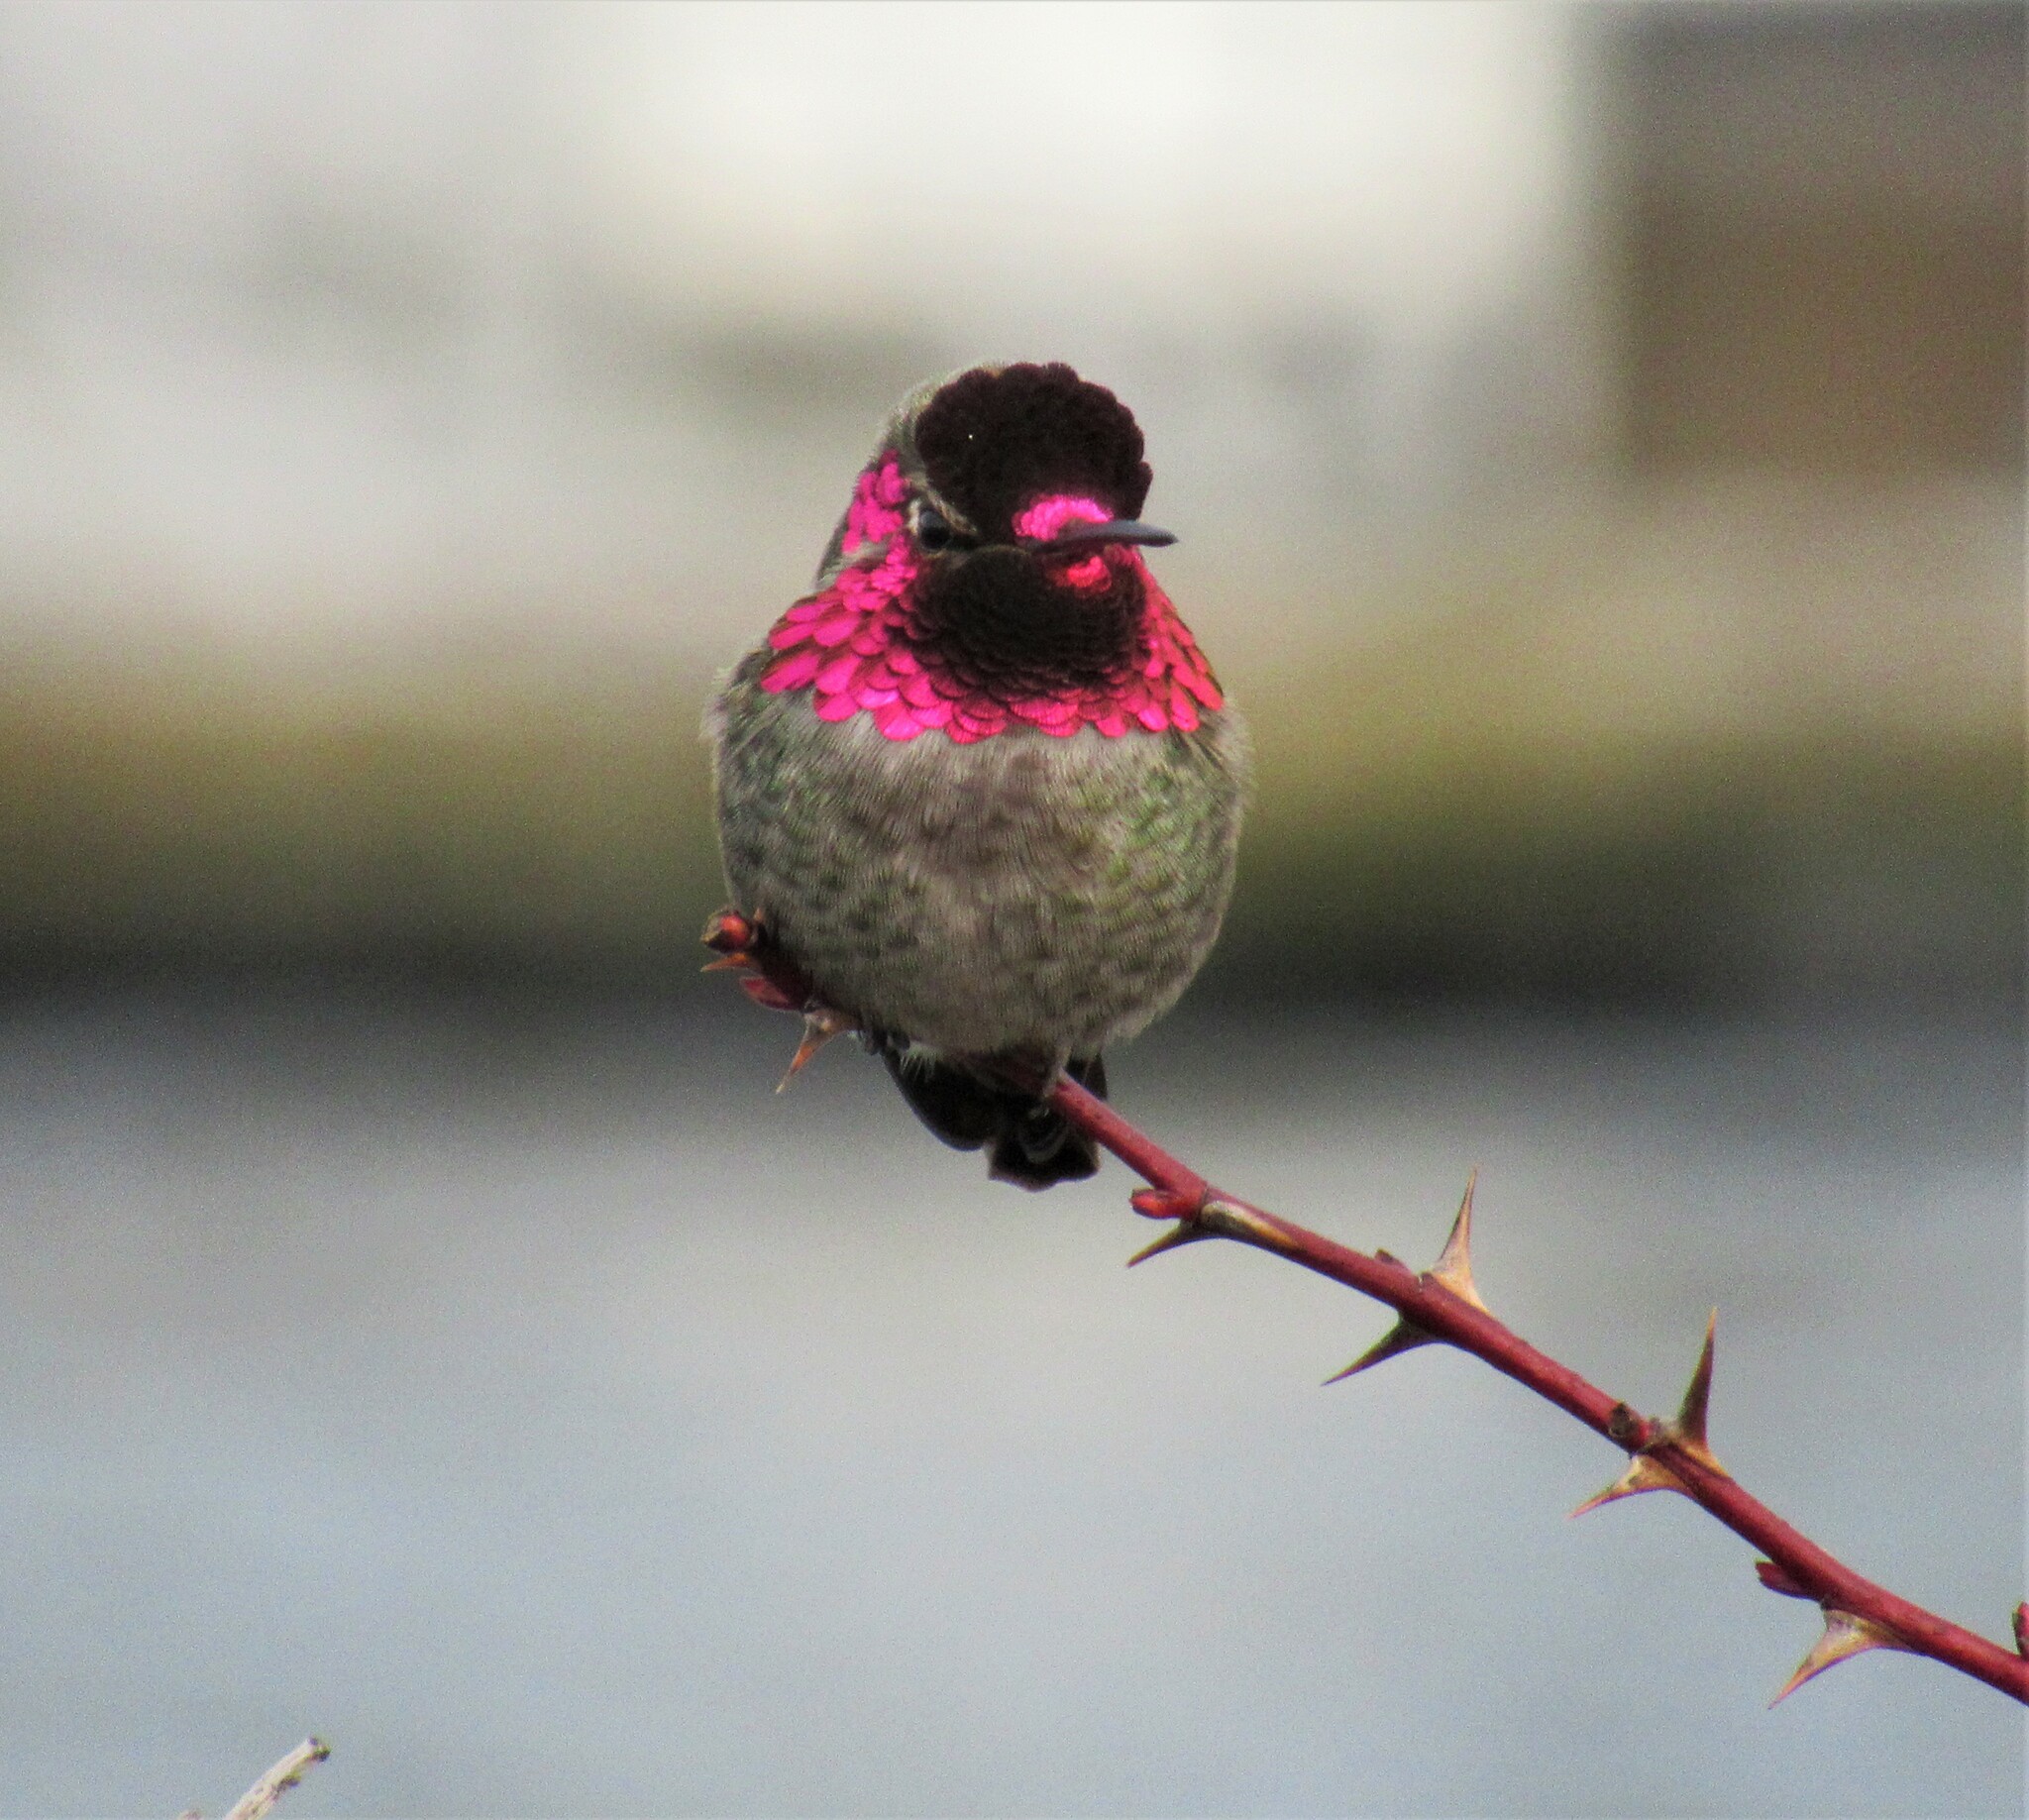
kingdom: Animalia
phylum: Chordata
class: Aves
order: Apodiformes
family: Trochilidae
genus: Calypte
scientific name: Calypte anna
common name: Anna's hummingbird
